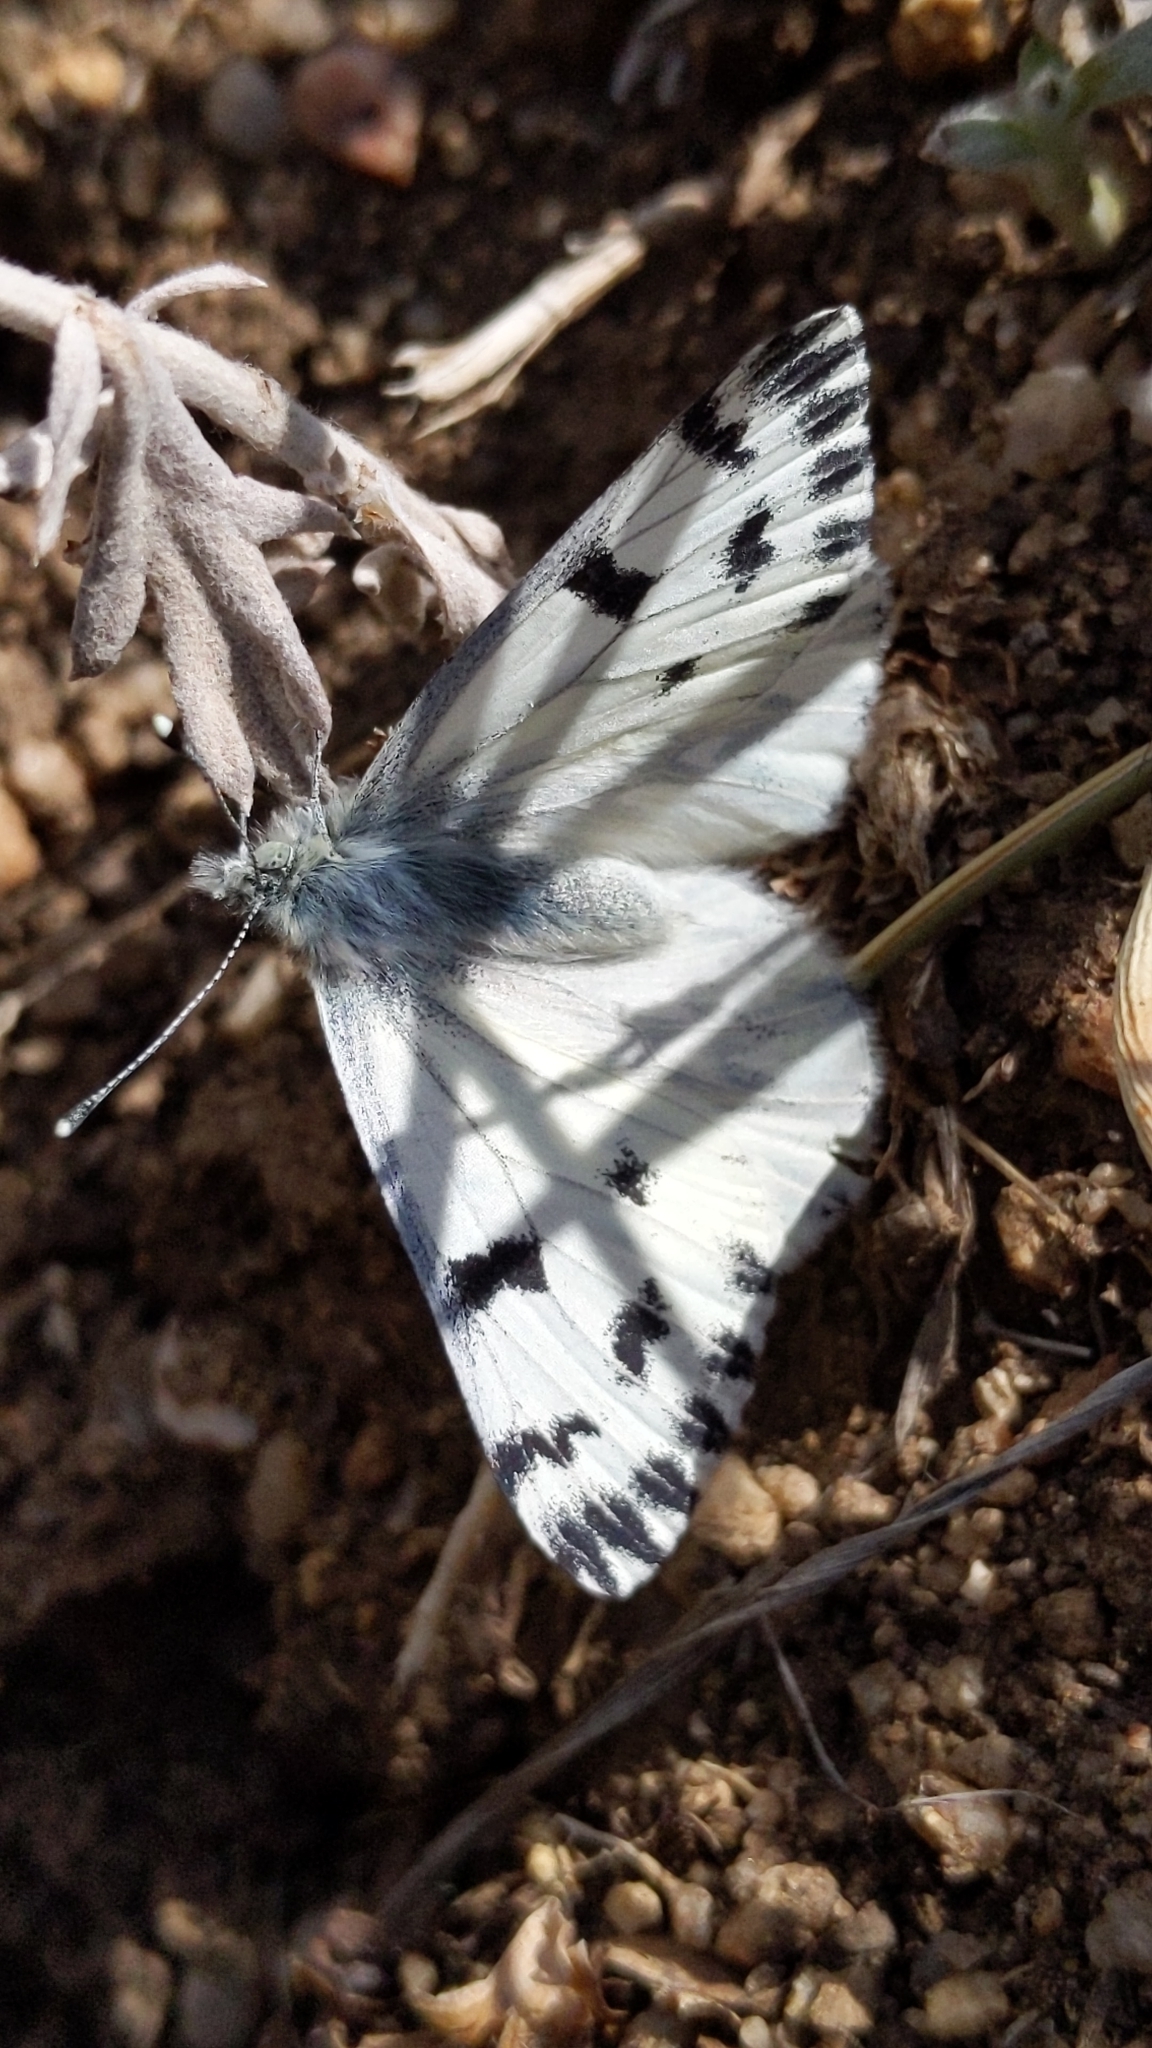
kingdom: Animalia
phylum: Arthropoda
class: Insecta
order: Lepidoptera
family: Pieridae
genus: Pontia
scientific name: Pontia sisymbrii
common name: California white
